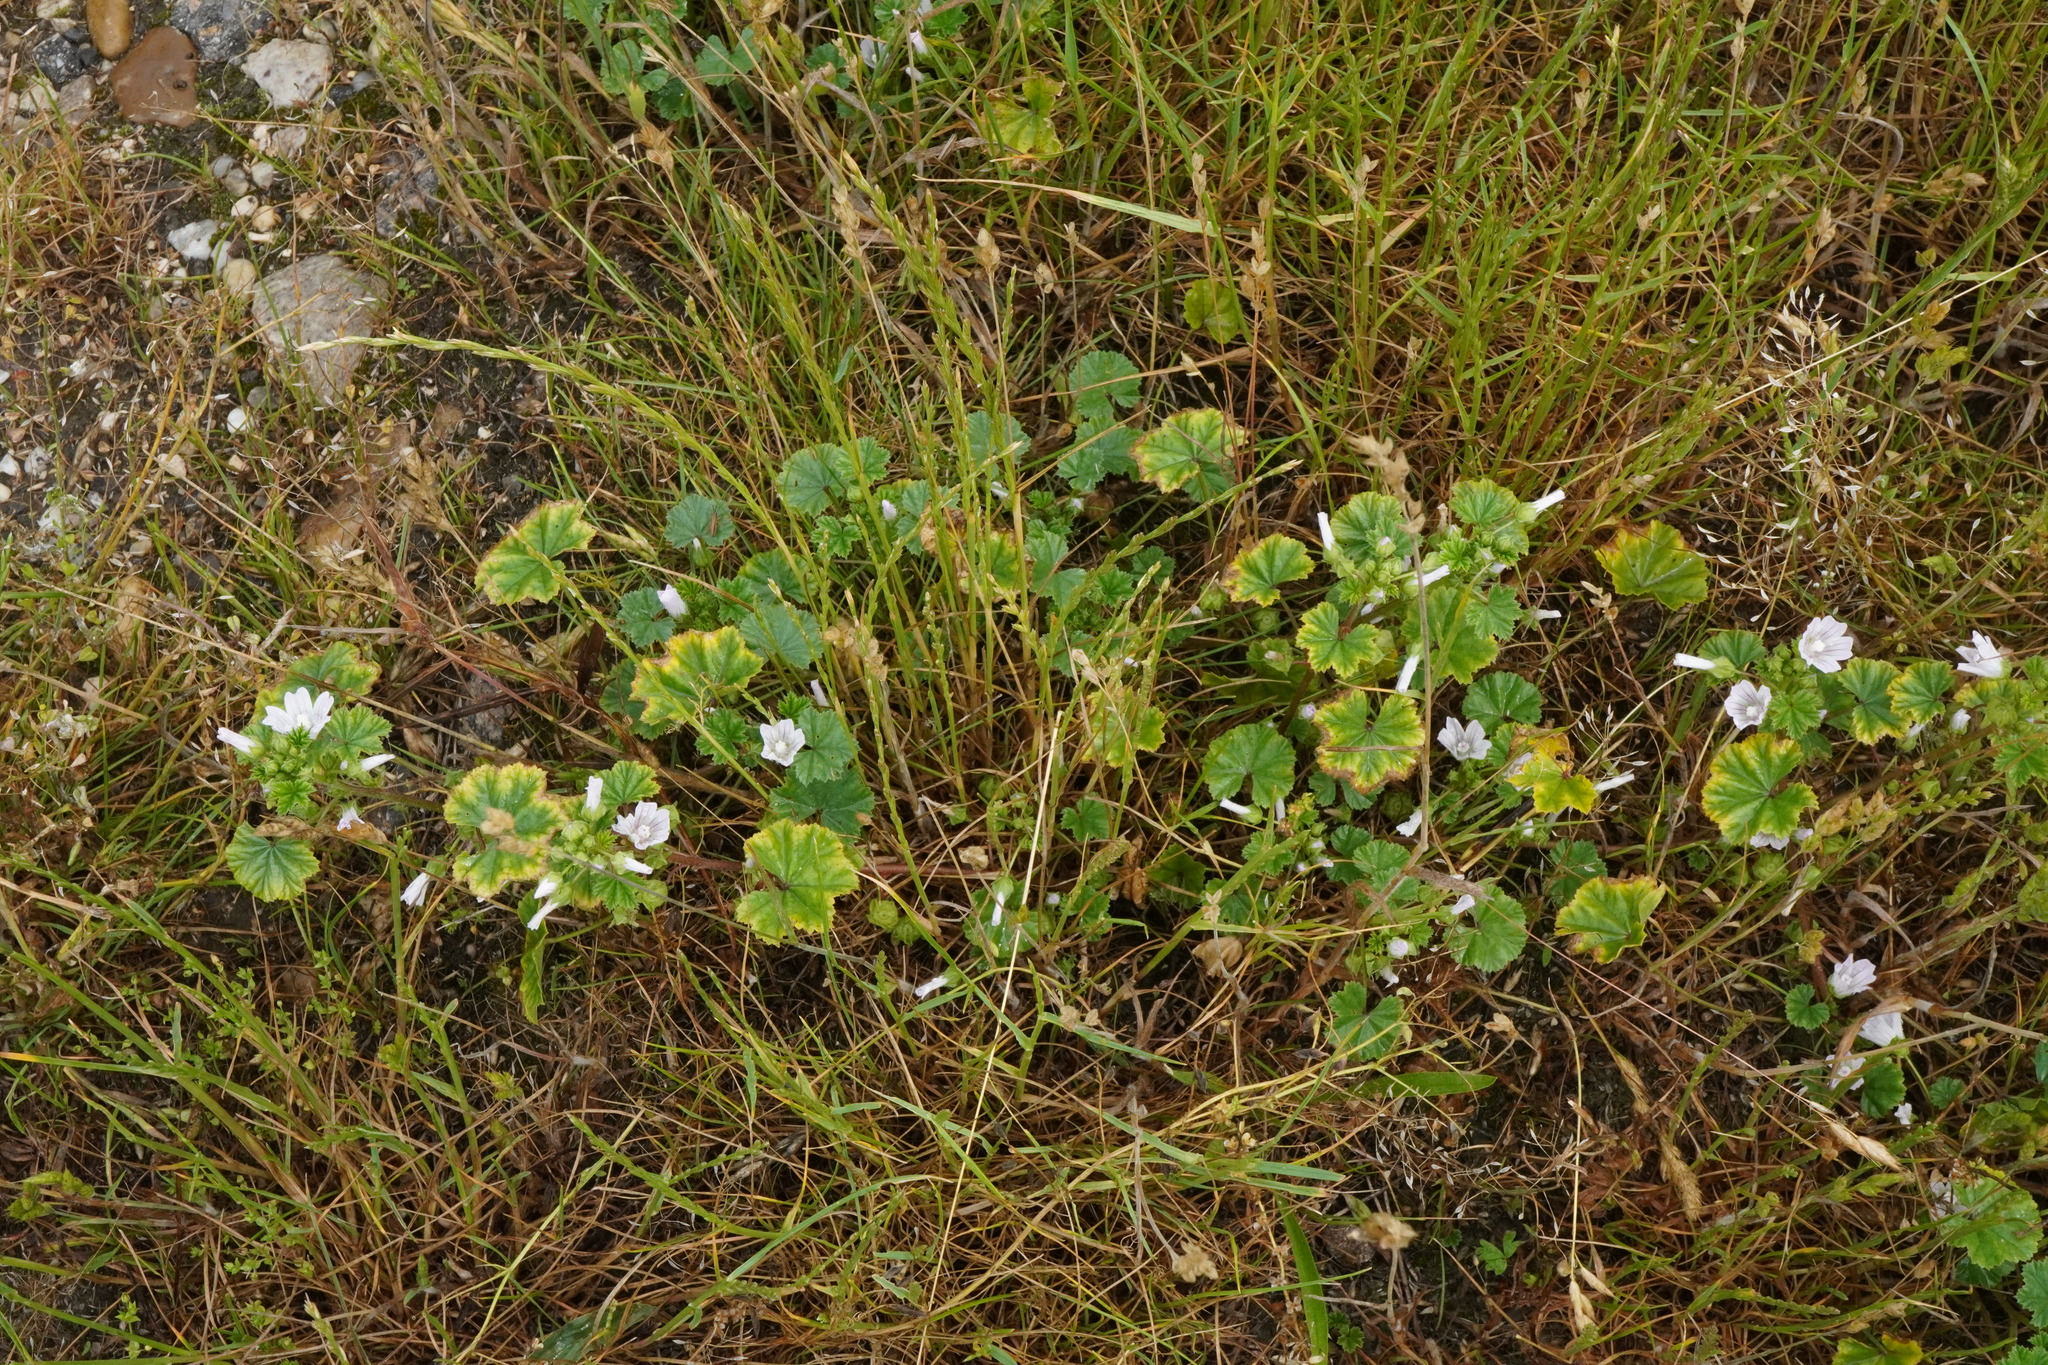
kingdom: Plantae
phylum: Tracheophyta
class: Magnoliopsida
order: Malvales
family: Malvaceae
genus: Malva
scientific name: Malva neglecta
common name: Common mallow
